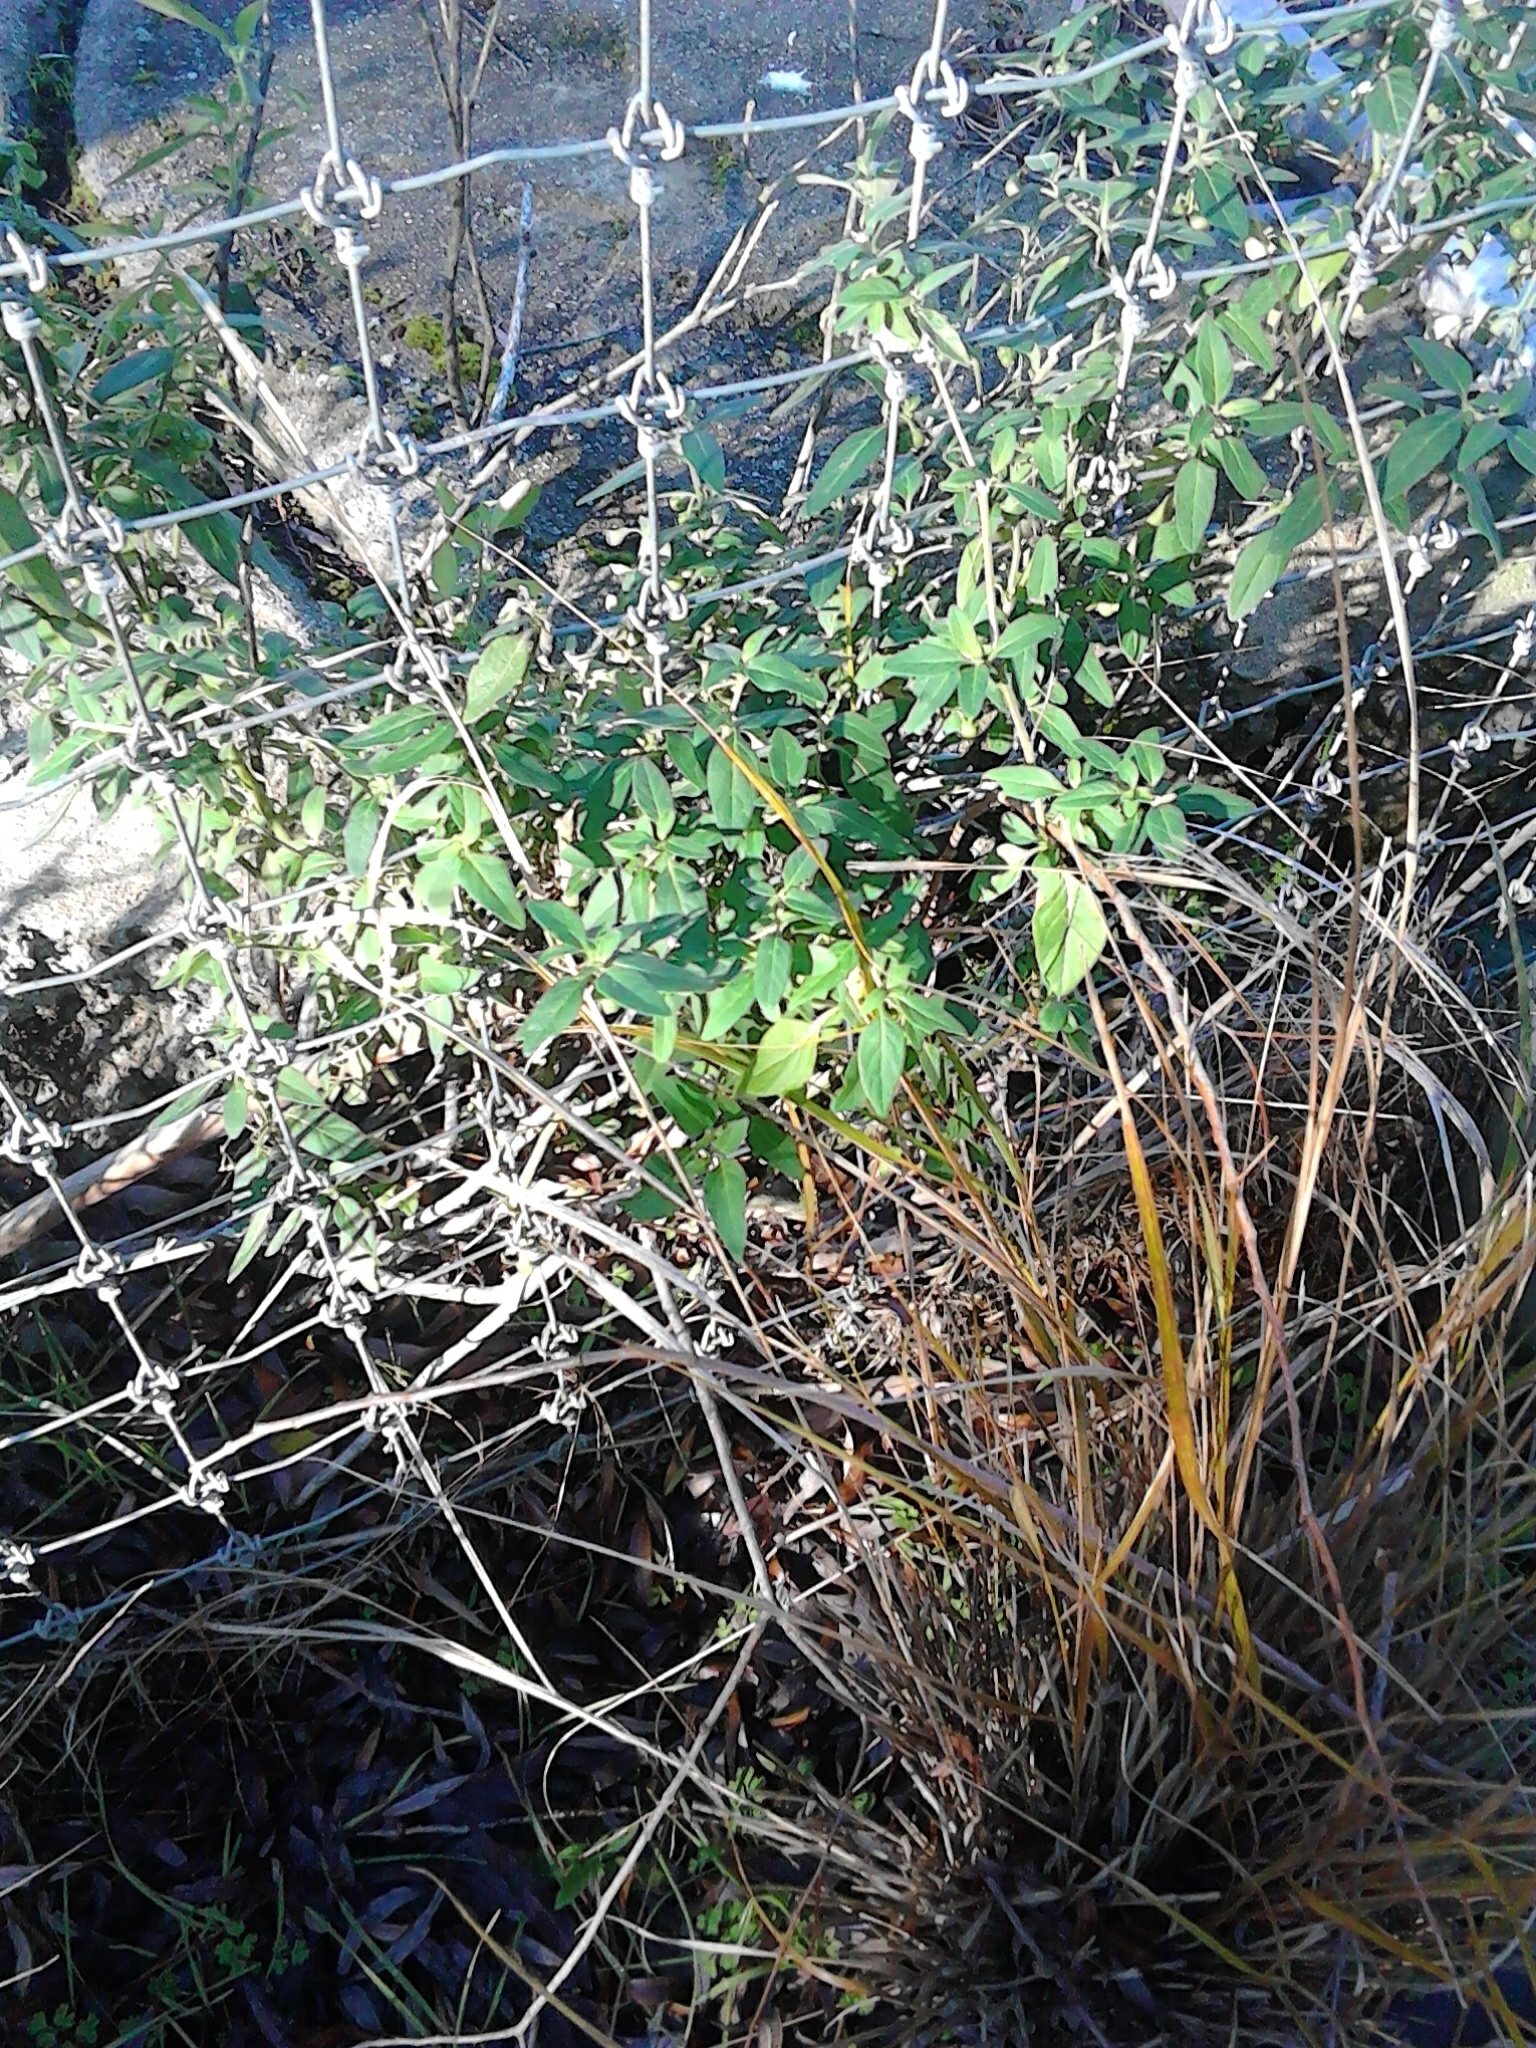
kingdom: Plantae
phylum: Tracheophyta
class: Magnoliopsida
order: Solanales
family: Solanaceae
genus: Solanum
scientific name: Solanum chenopodioides
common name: Tall nightshade
